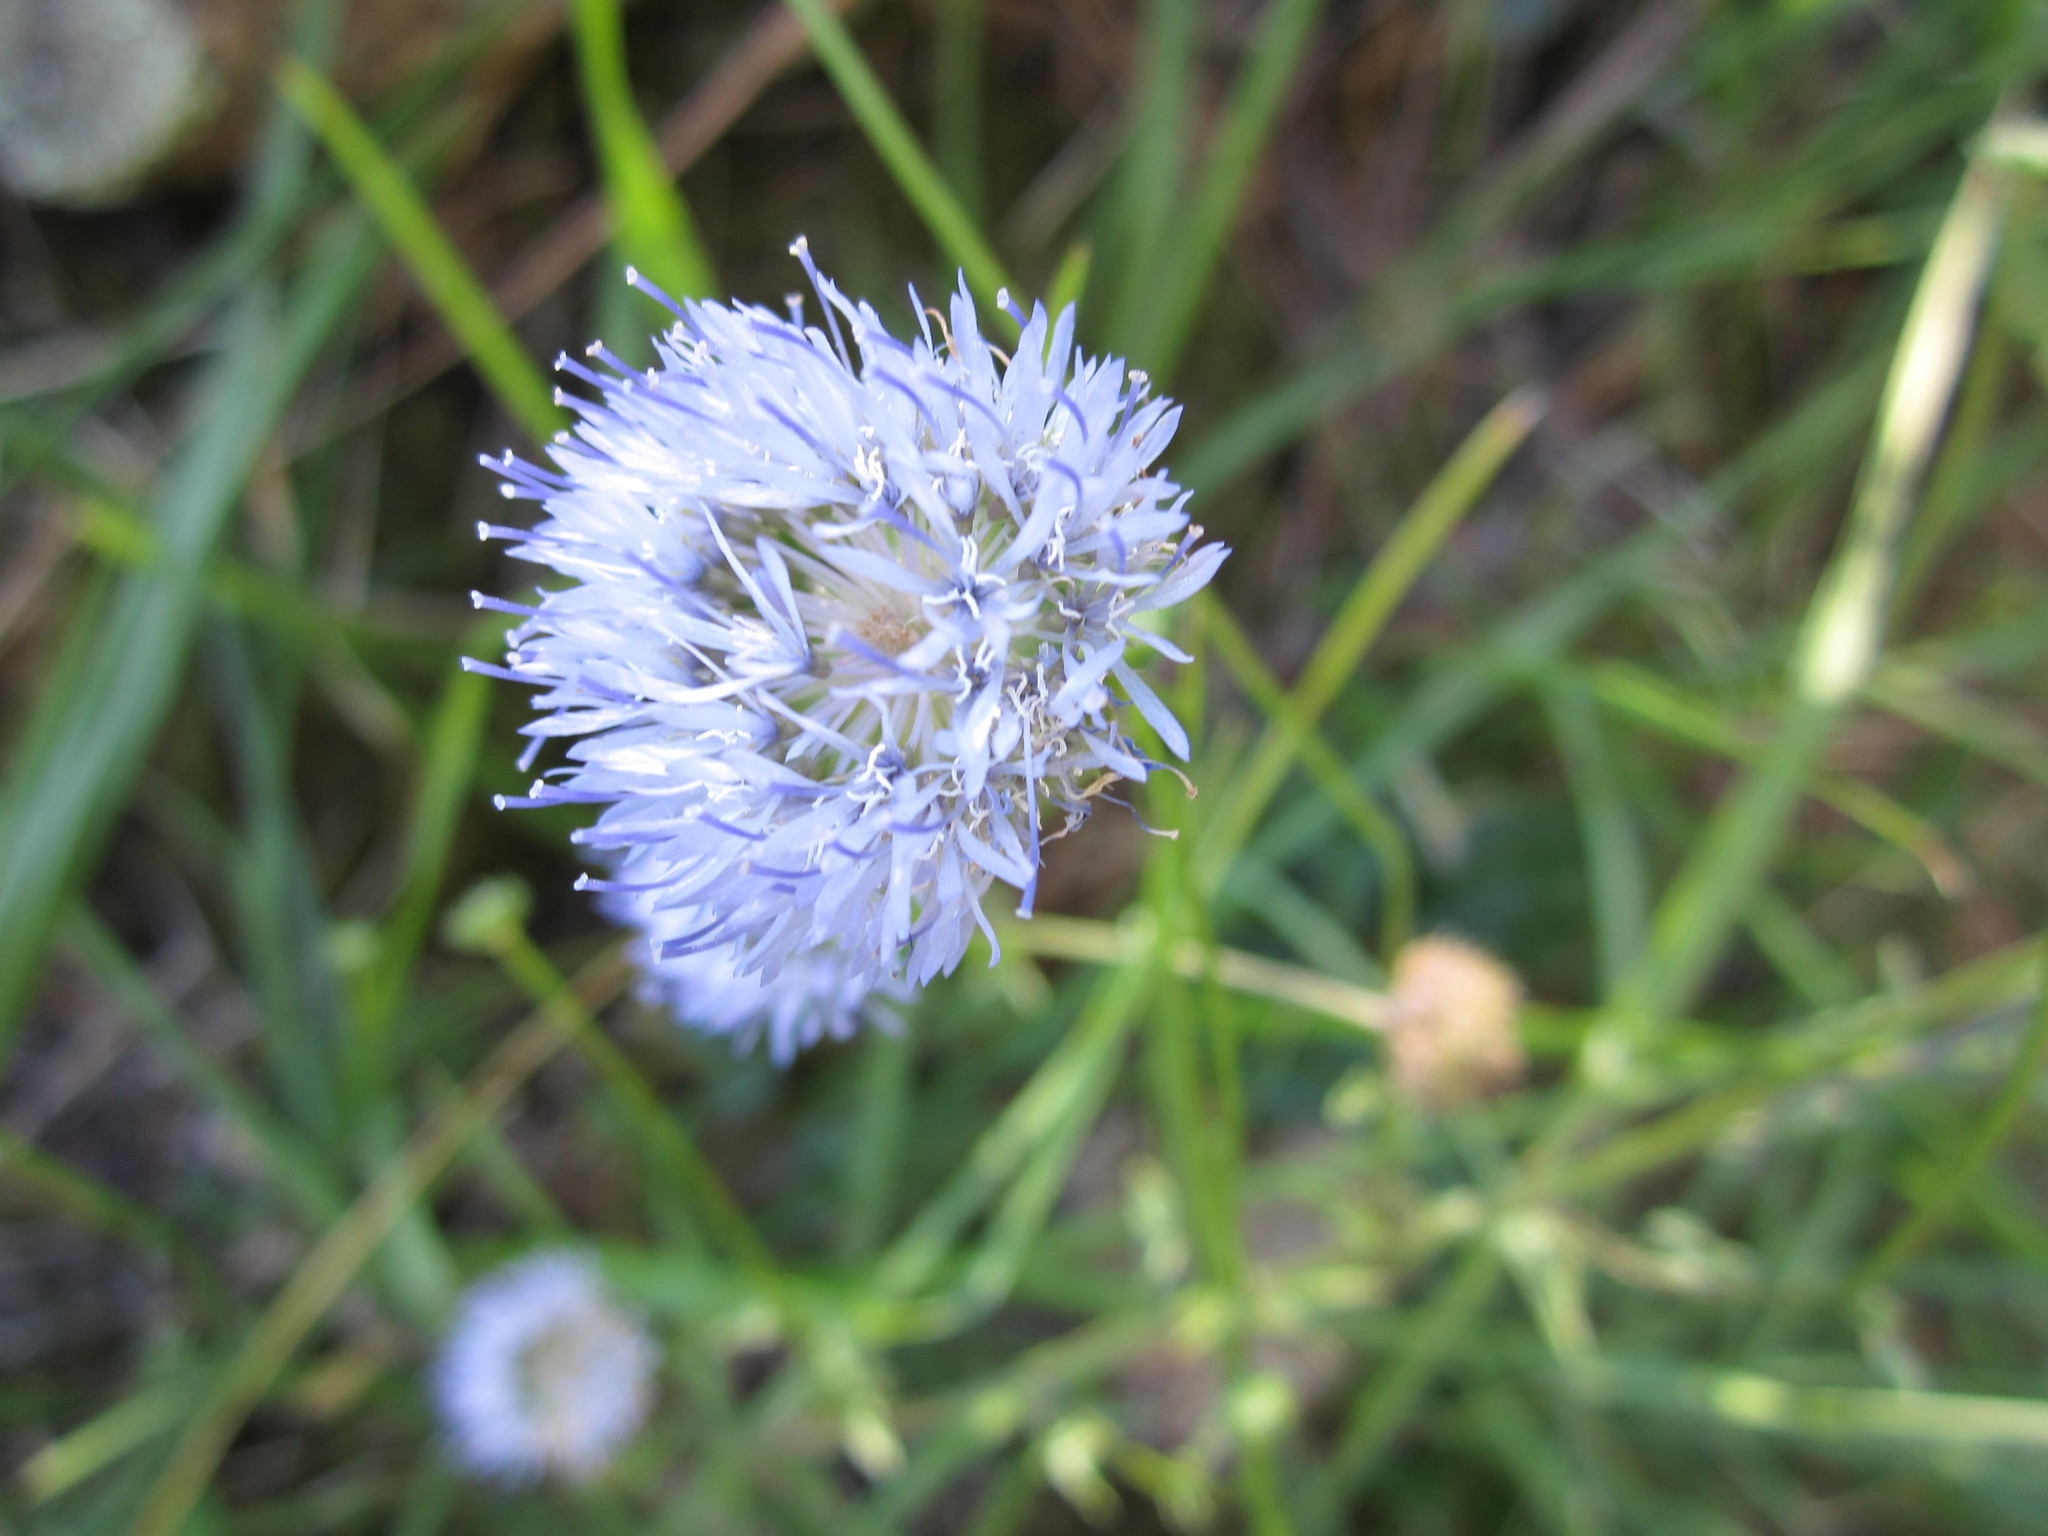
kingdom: Plantae
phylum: Tracheophyta
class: Magnoliopsida
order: Asterales
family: Campanulaceae
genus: Jasione
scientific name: Jasione montana
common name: Sheep's-bit
